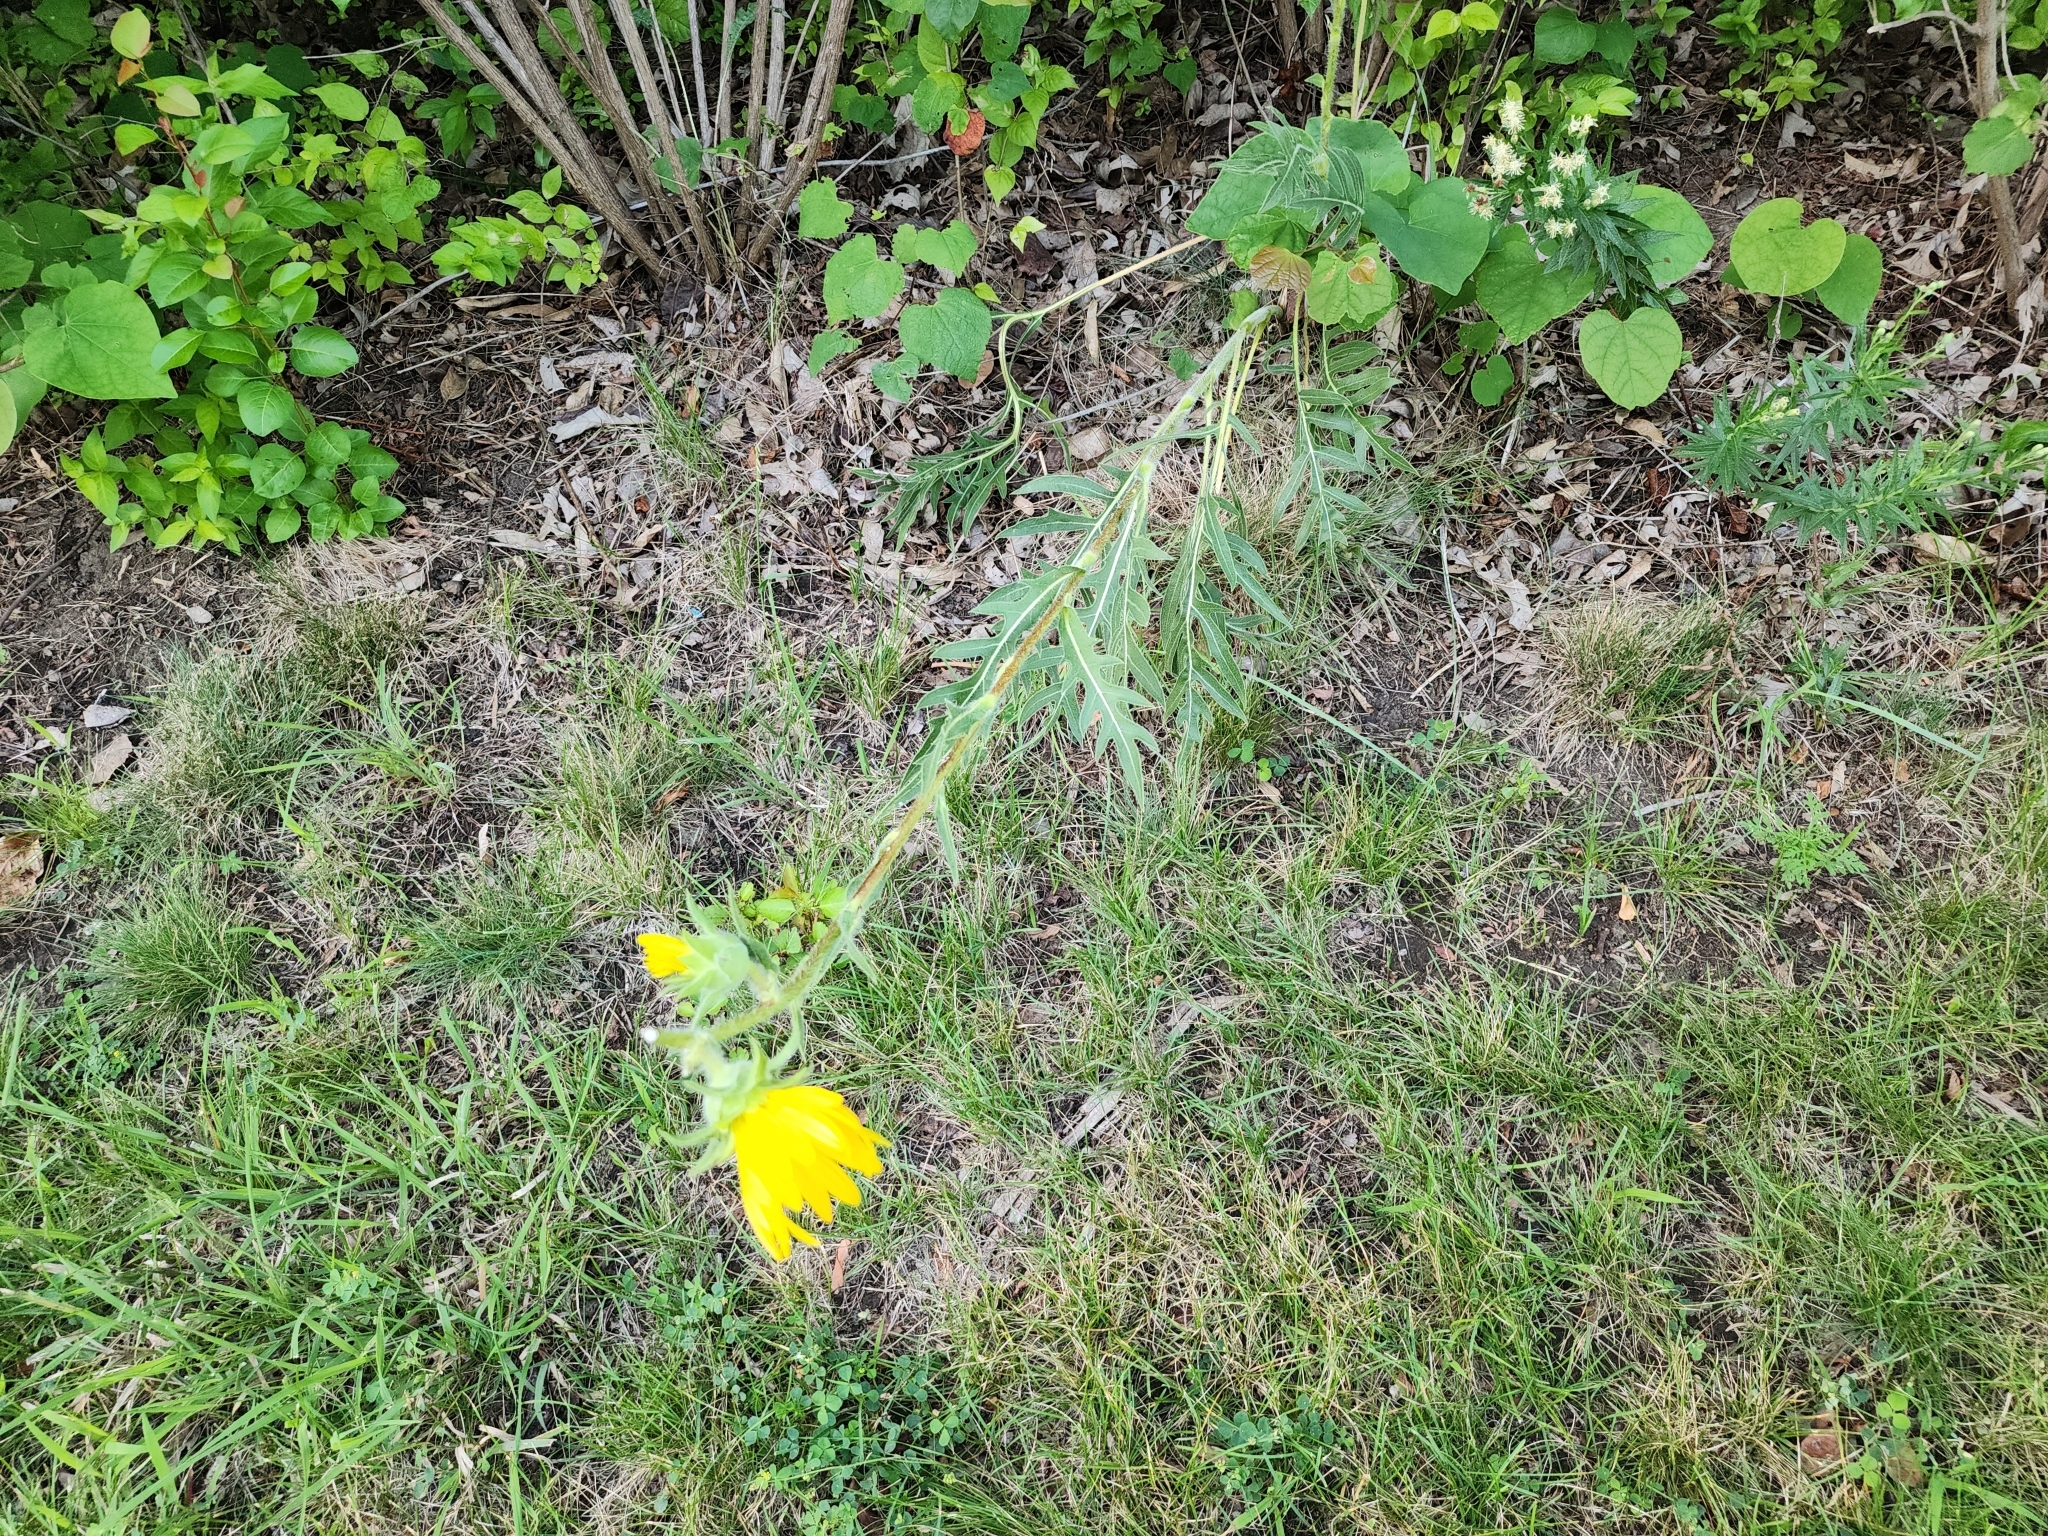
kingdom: Plantae
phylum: Tracheophyta
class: Magnoliopsida
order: Asterales
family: Asteraceae
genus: Silphium
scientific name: Silphium laciniatum
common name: Polarplant
